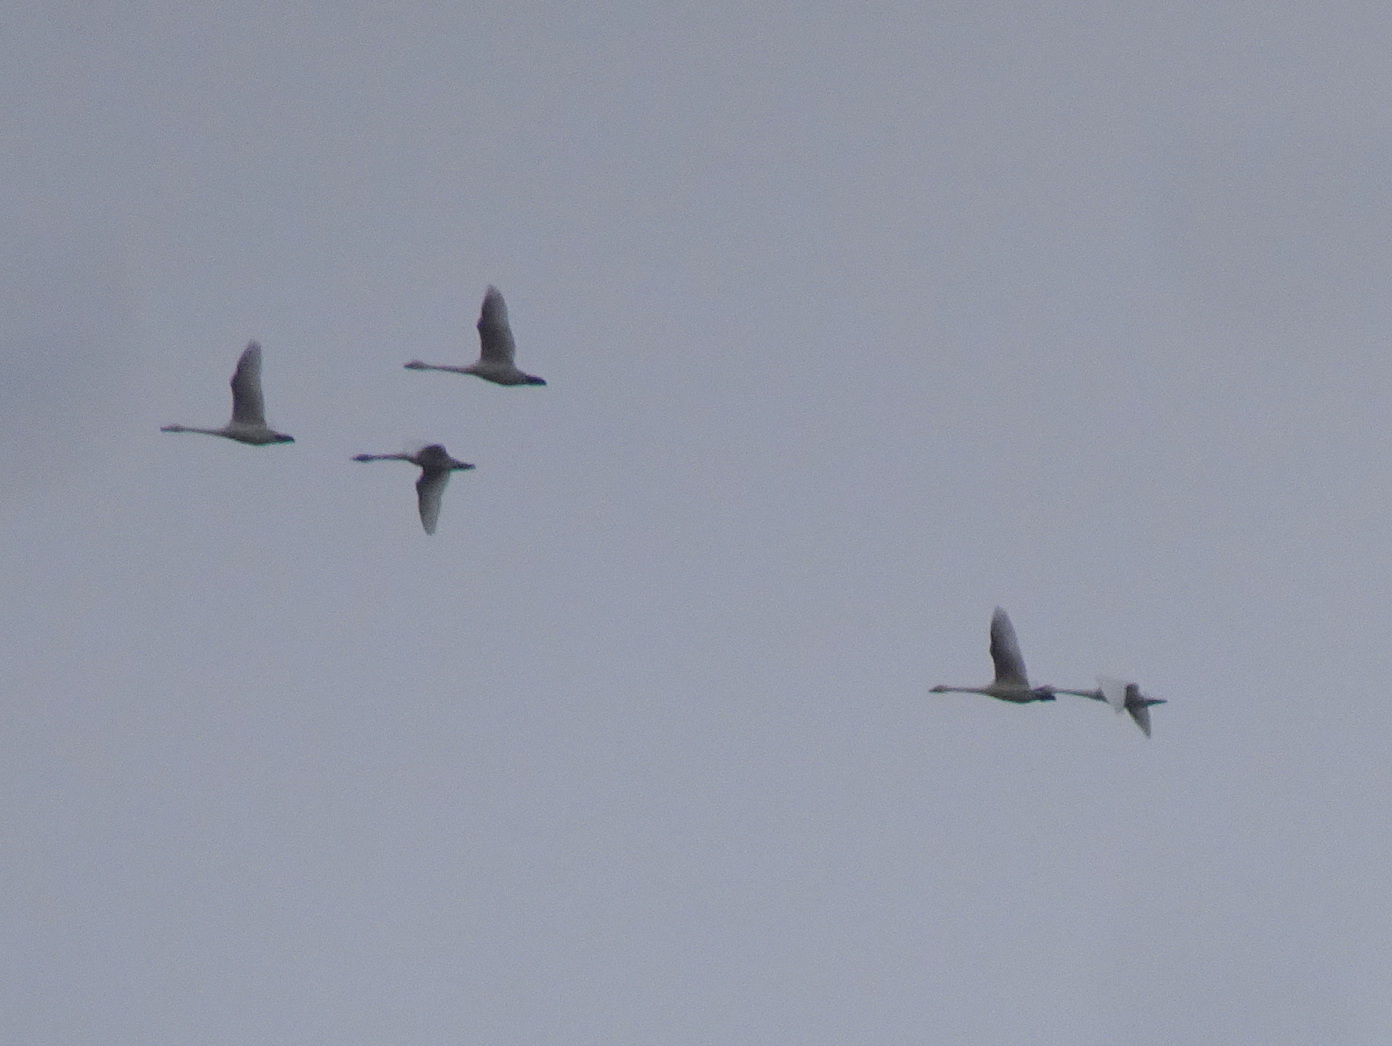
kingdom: Animalia
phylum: Chordata
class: Aves
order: Anseriformes
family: Anatidae
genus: Cygnus
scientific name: Cygnus columbianus
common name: Tundra swan
